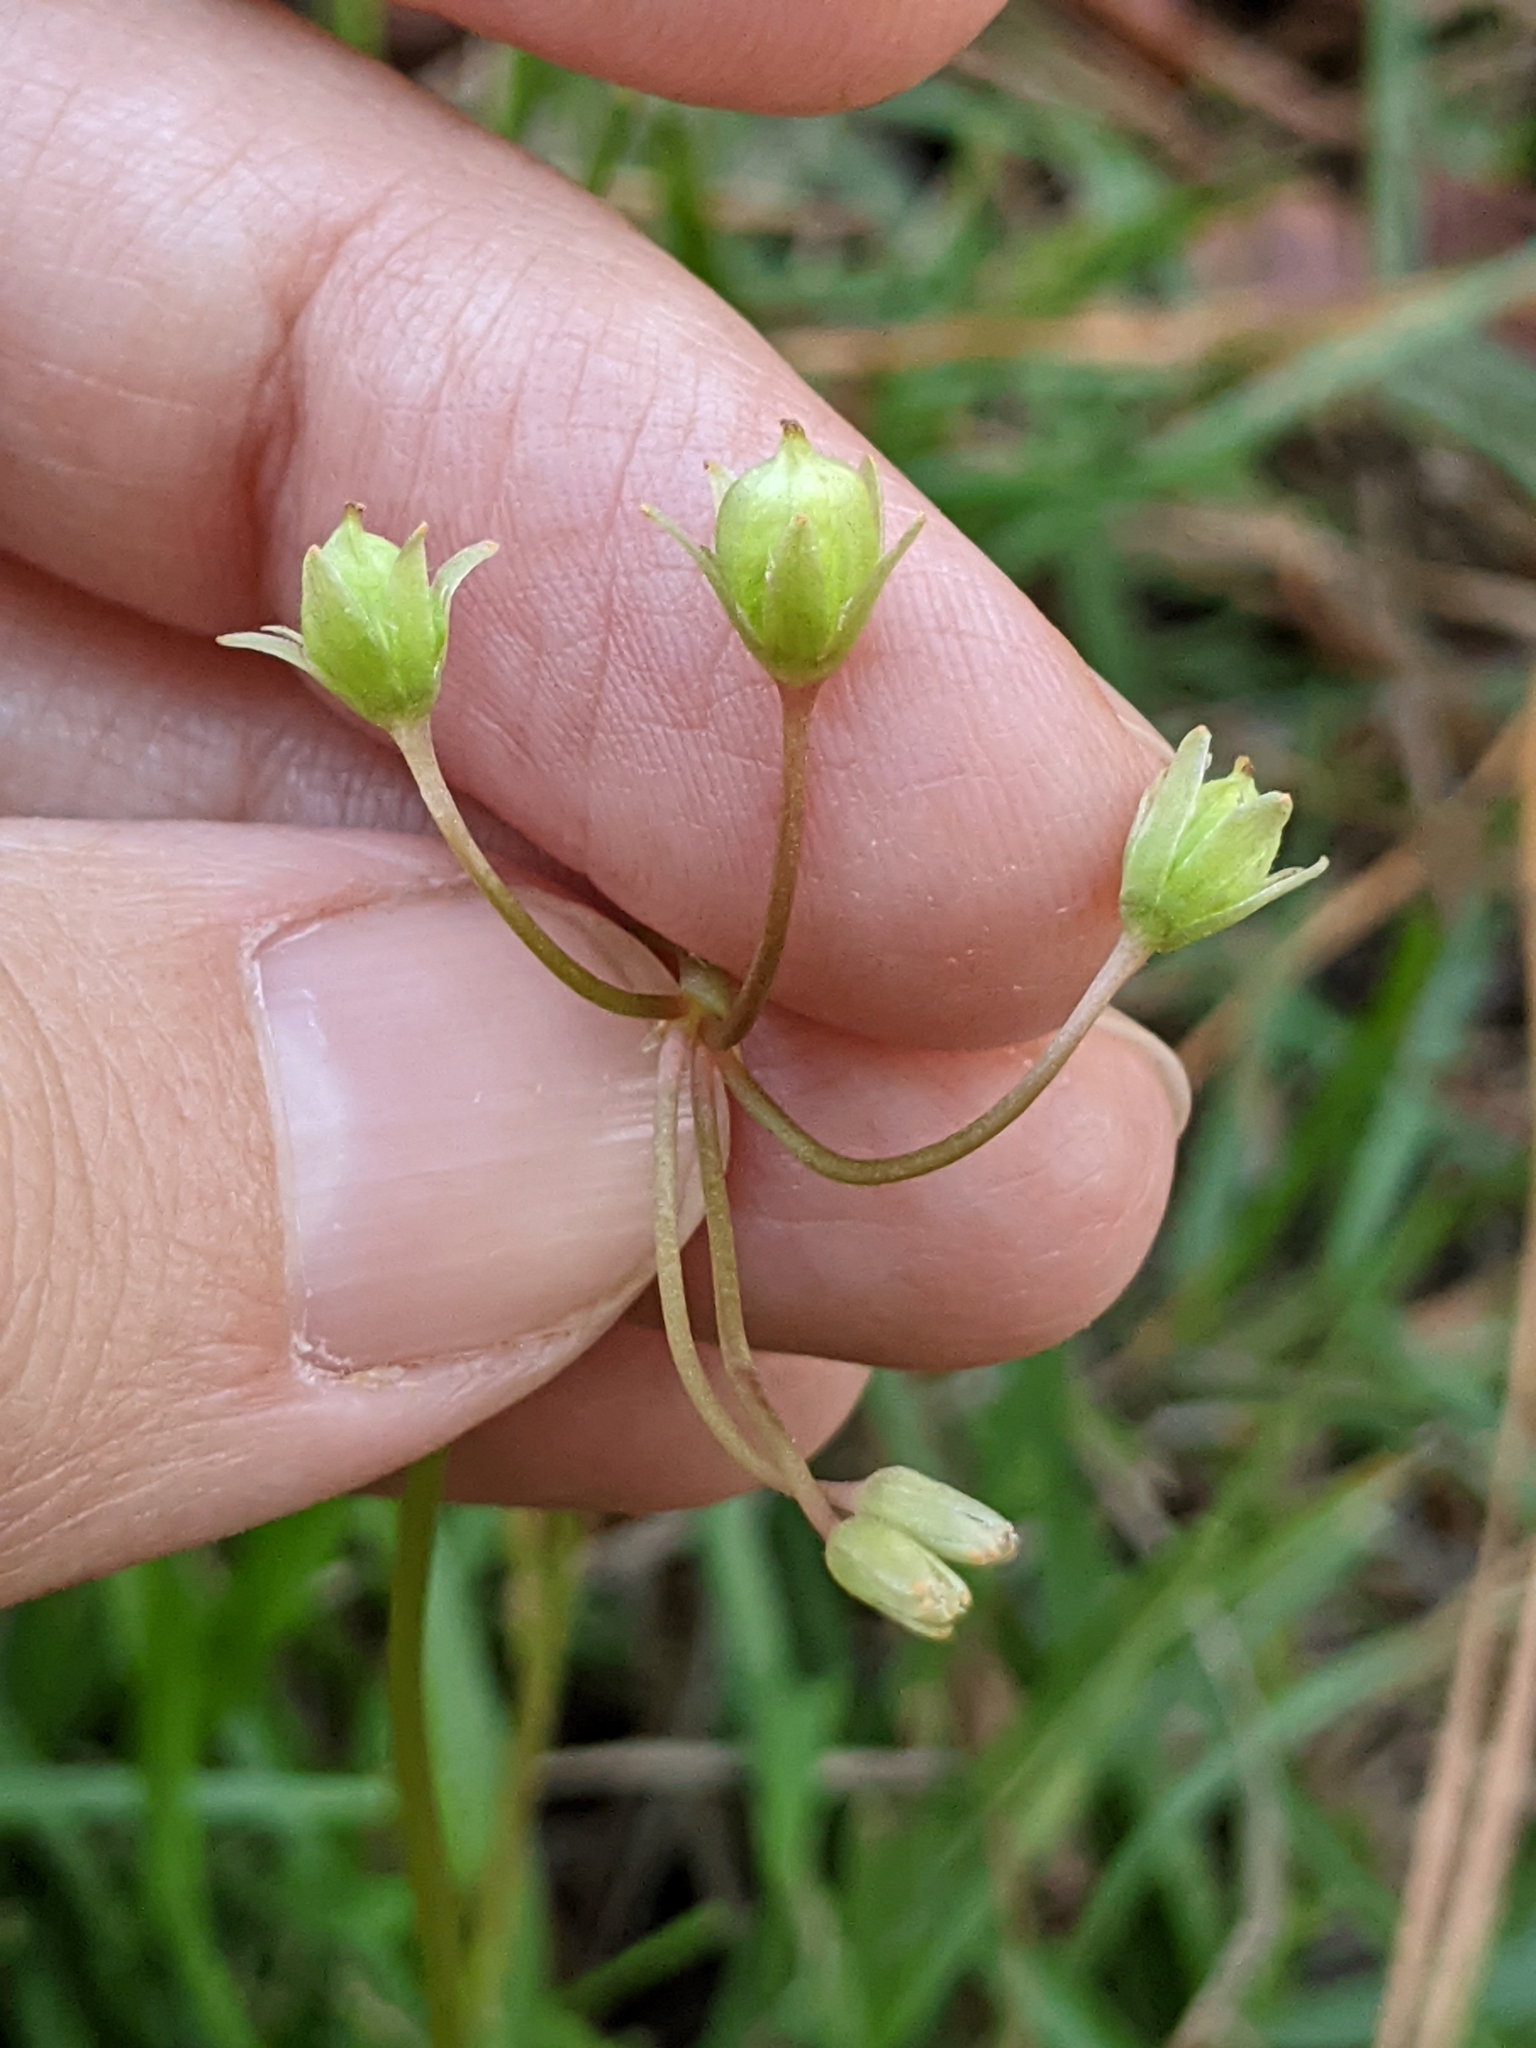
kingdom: Plantae
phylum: Tracheophyta
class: Magnoliopsida
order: Oxalidales
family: Oxalidaceae
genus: Oxalis
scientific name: Oxalis violacea
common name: Violet wood-sorrel
